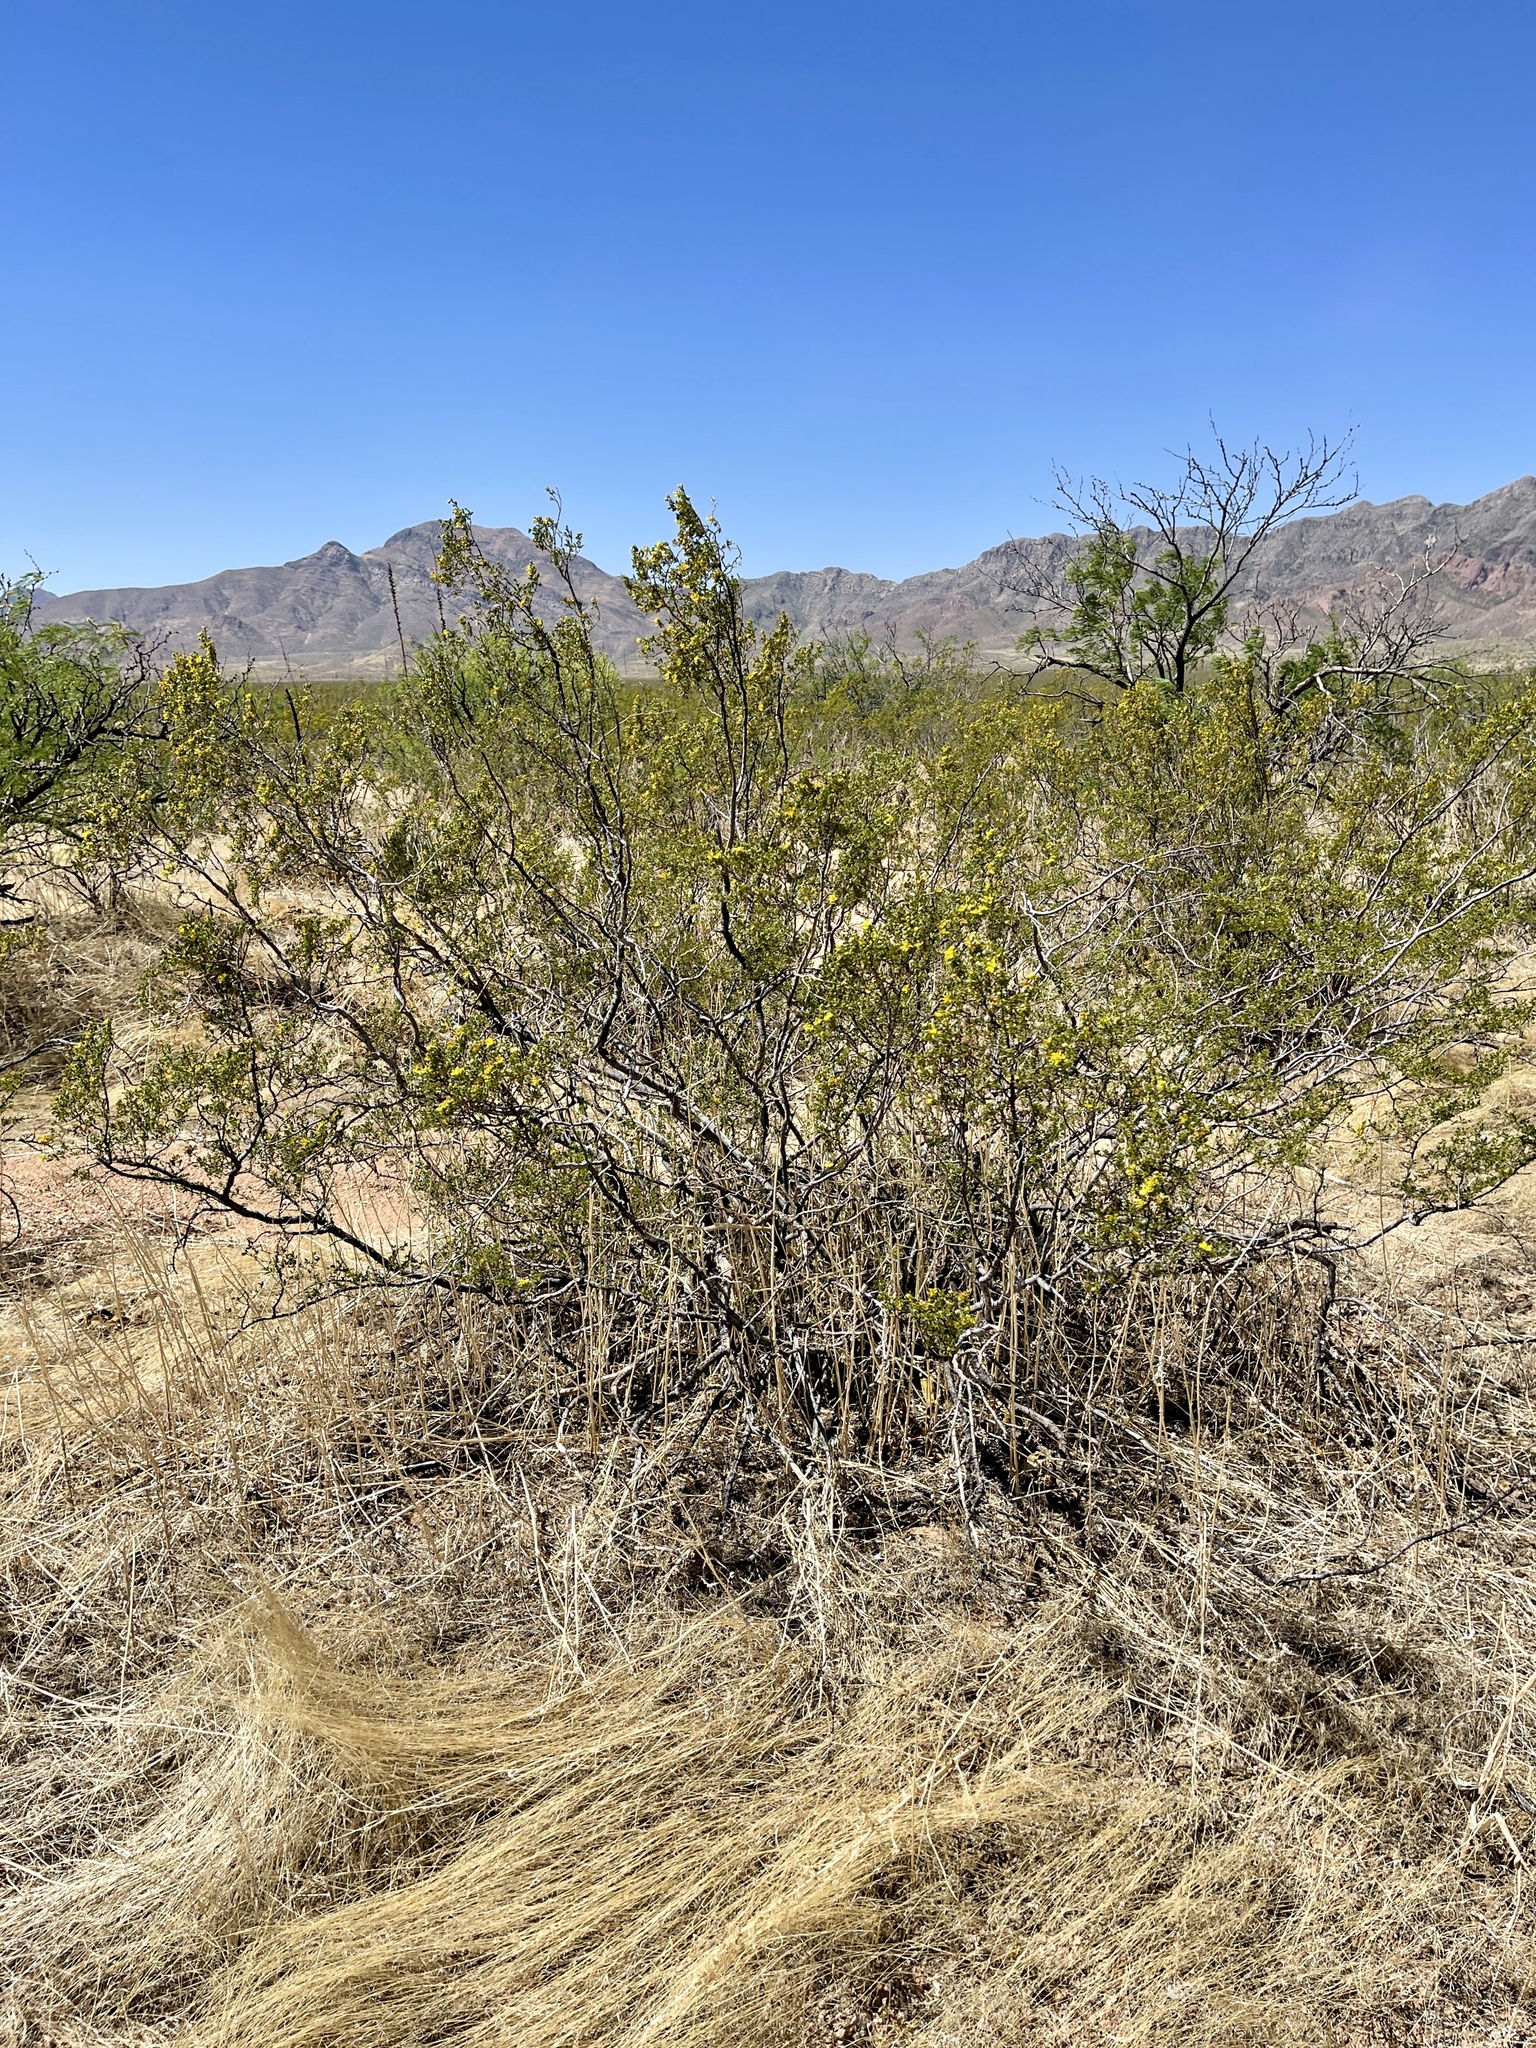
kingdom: Plantae
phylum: Tracheophyta
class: Magnoliopsida
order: Zygophyllales
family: Zygophyllaceae
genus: Larrea
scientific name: Larrea tridentata
